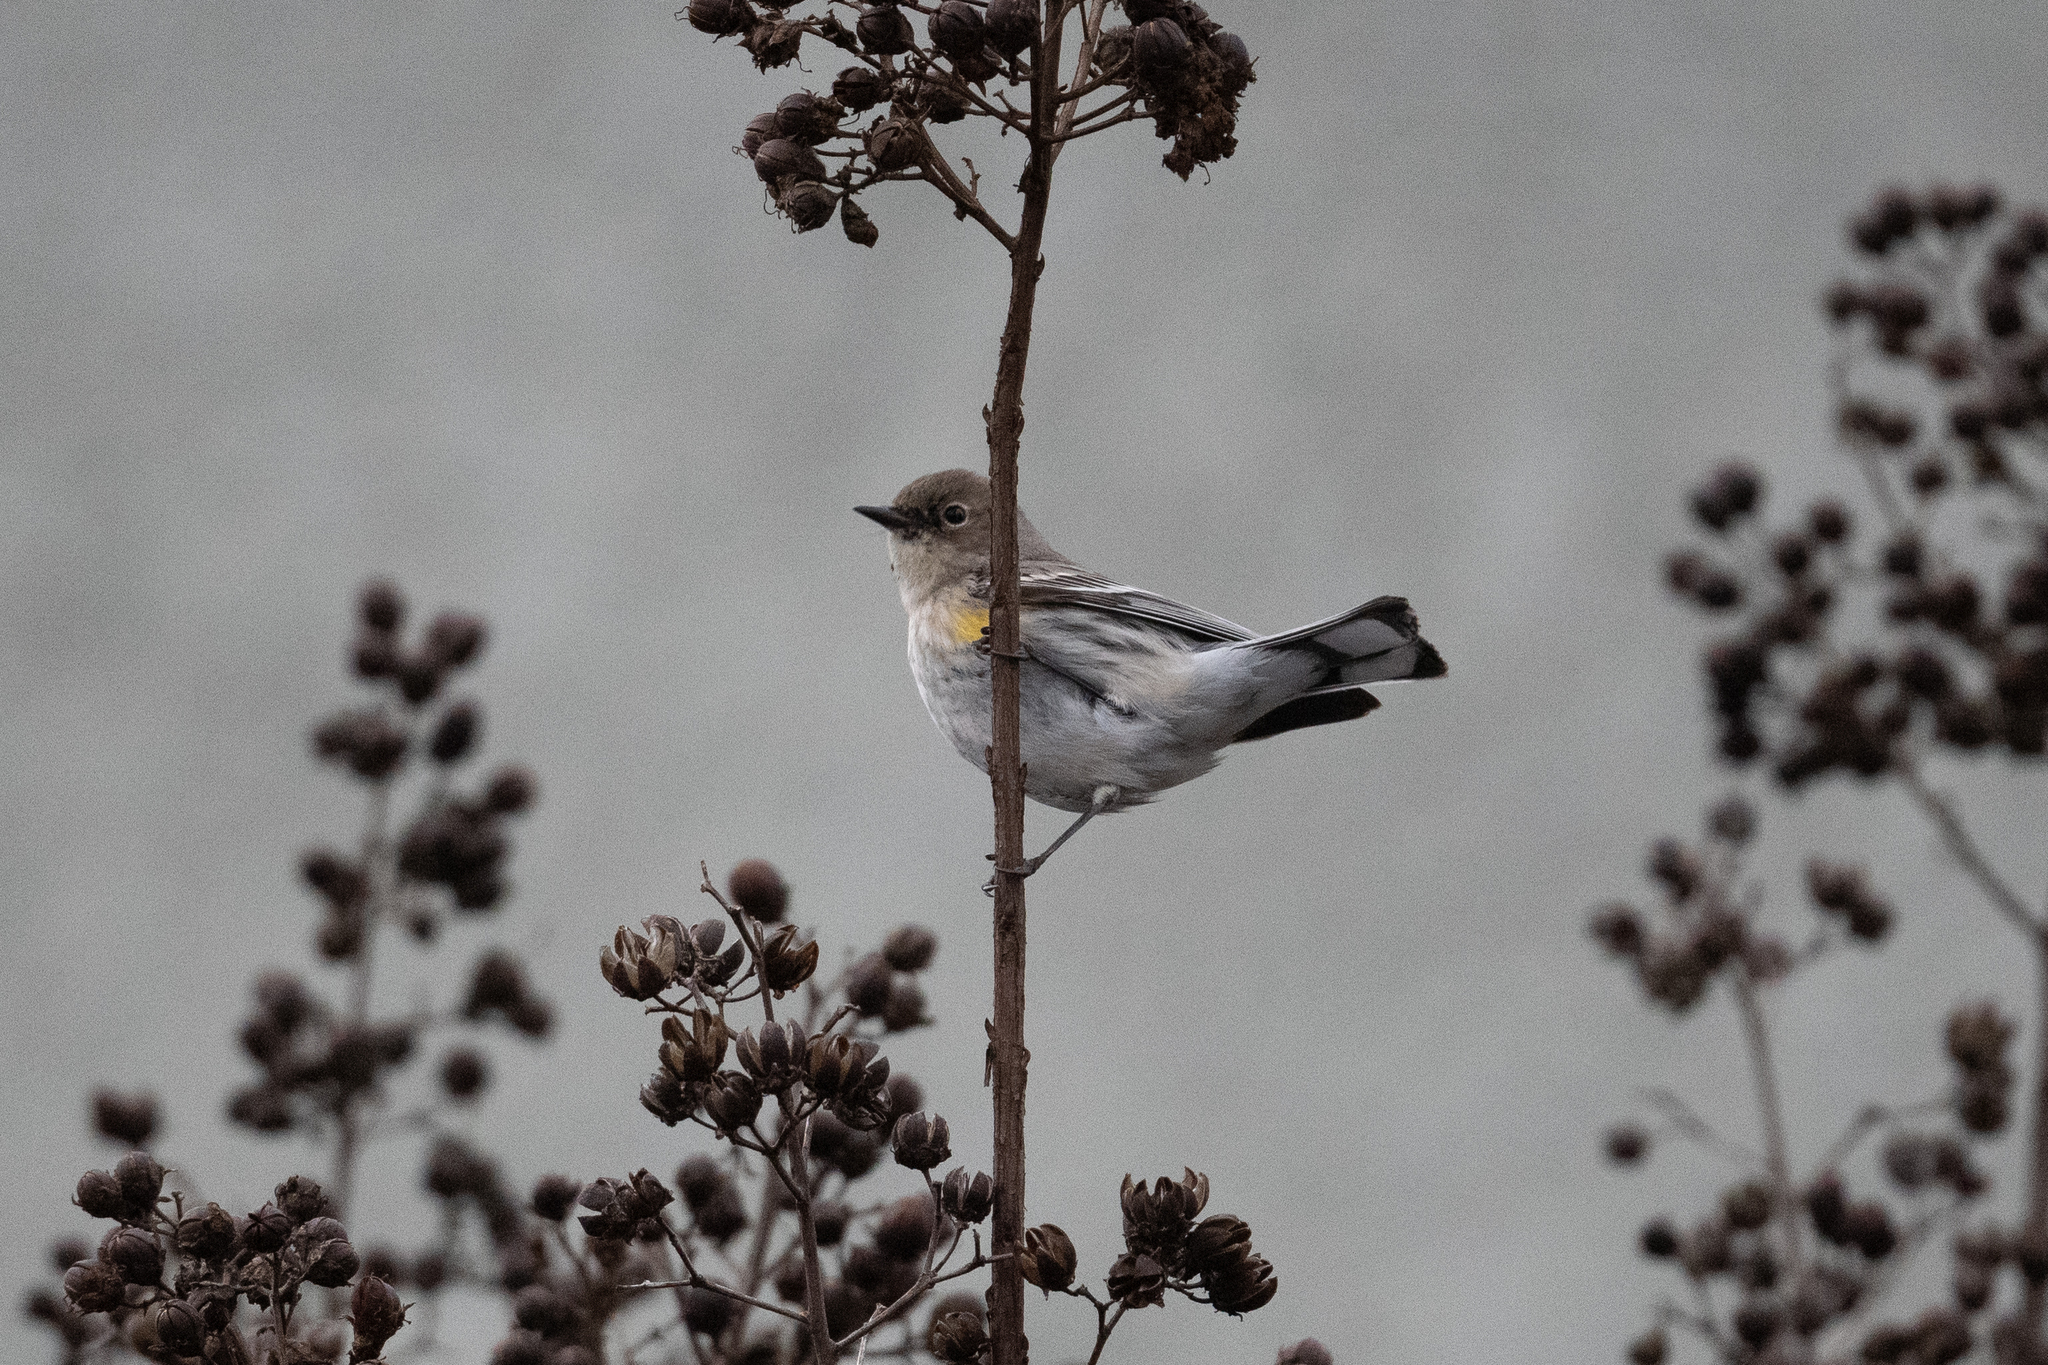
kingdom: Animalia
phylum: Chordata
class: Aves
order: Passeriformes
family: Parulidae
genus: Setophaga
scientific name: Setophaga coronata
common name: Myrtle warbler
